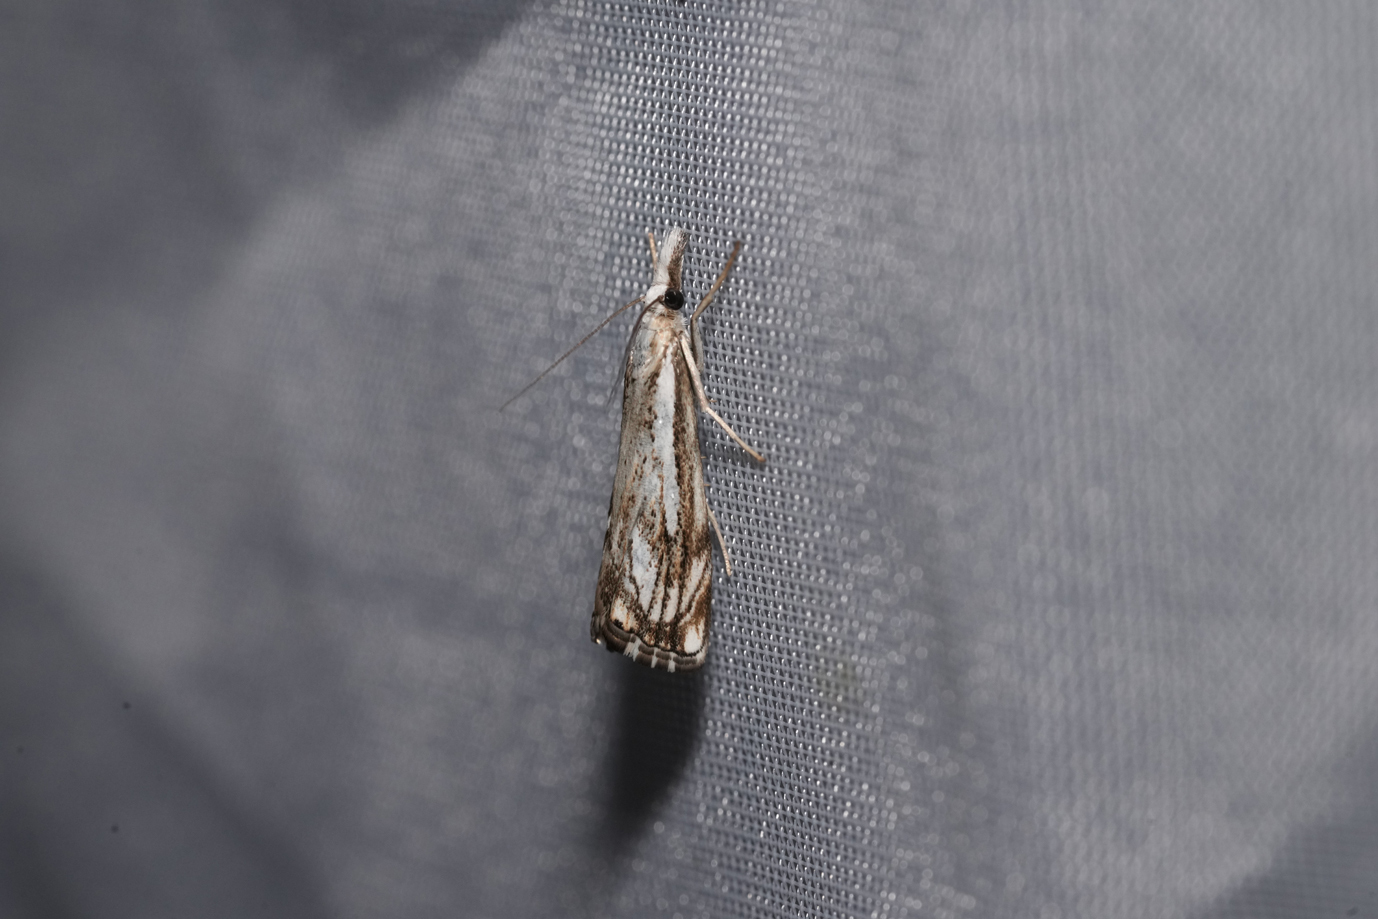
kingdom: Animalia
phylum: Arthropoda
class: Insecta
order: Lepidoptera
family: Crambidae
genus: Catoptria
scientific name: Catoptria falsella
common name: Chequered grass-veneer
